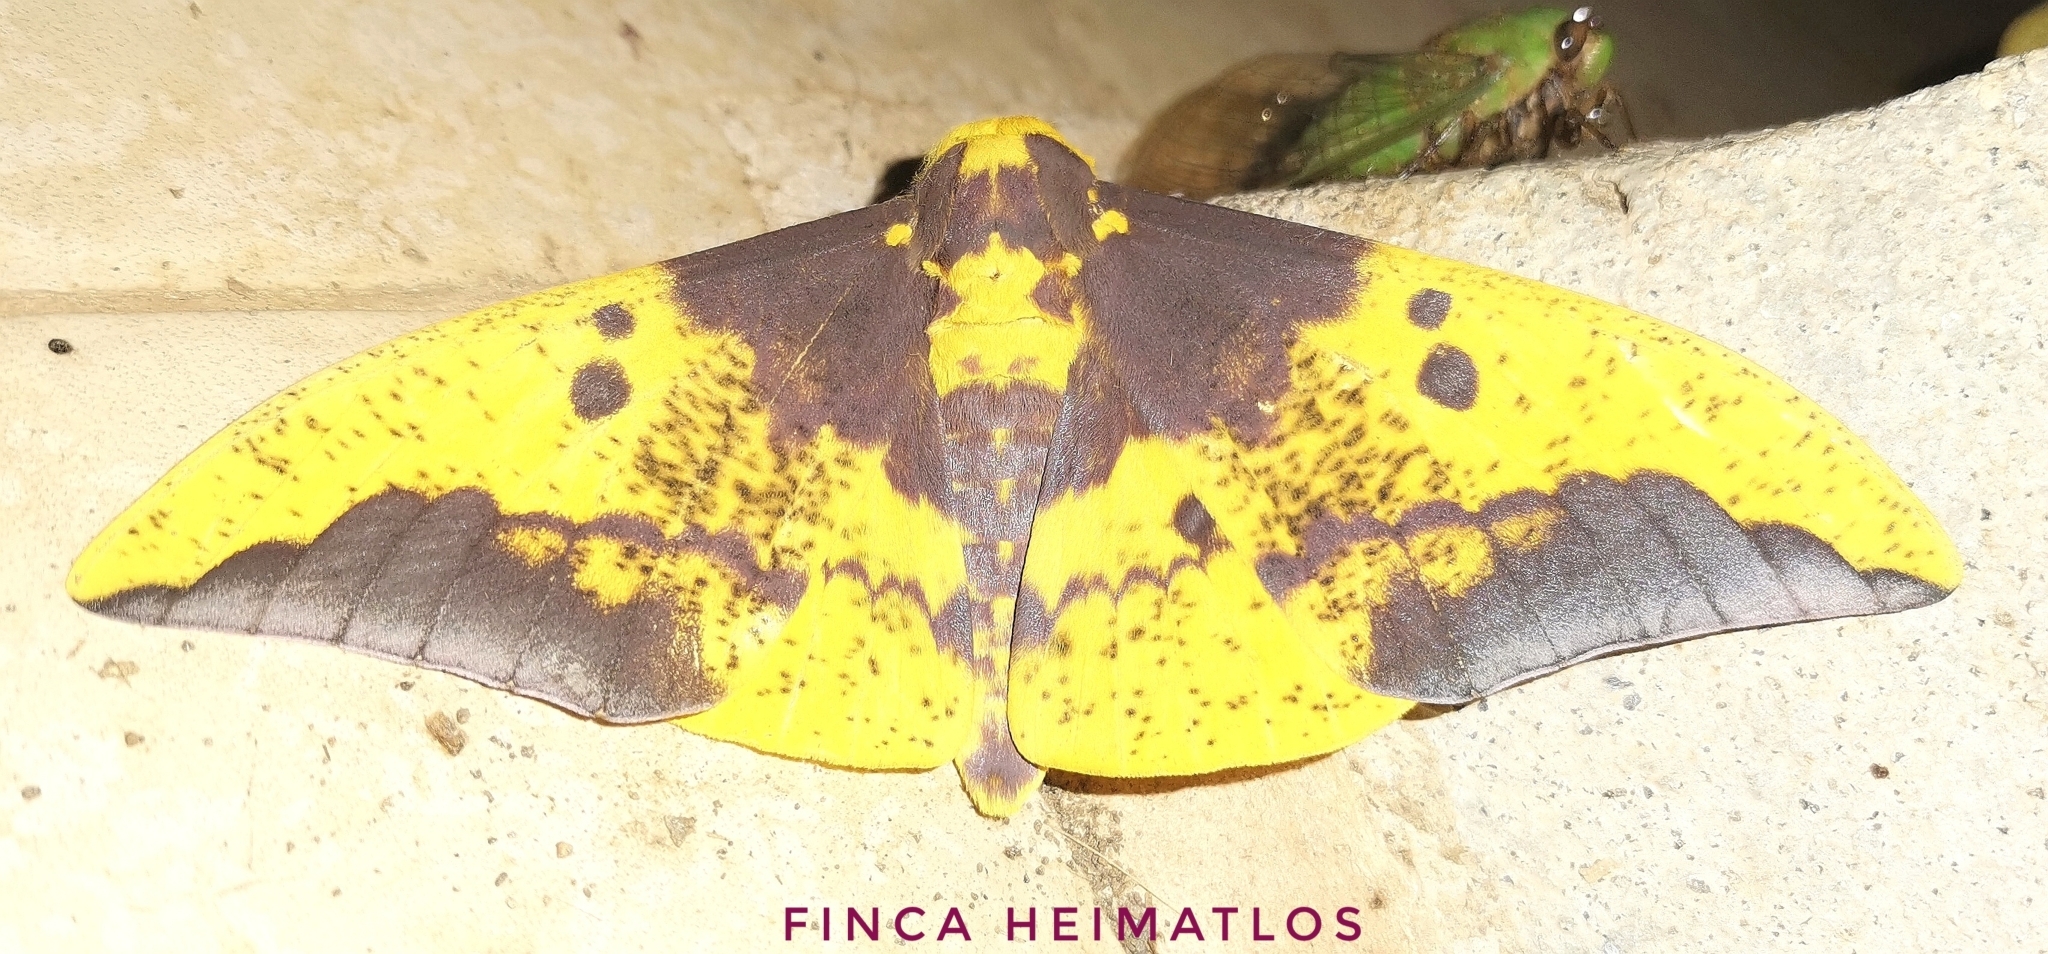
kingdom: Animalia
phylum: Arthropoda
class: Insecta
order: Lepidoptera
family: Saturniidae
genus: Eacles
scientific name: Eacles imperialis
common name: Imperial moth
